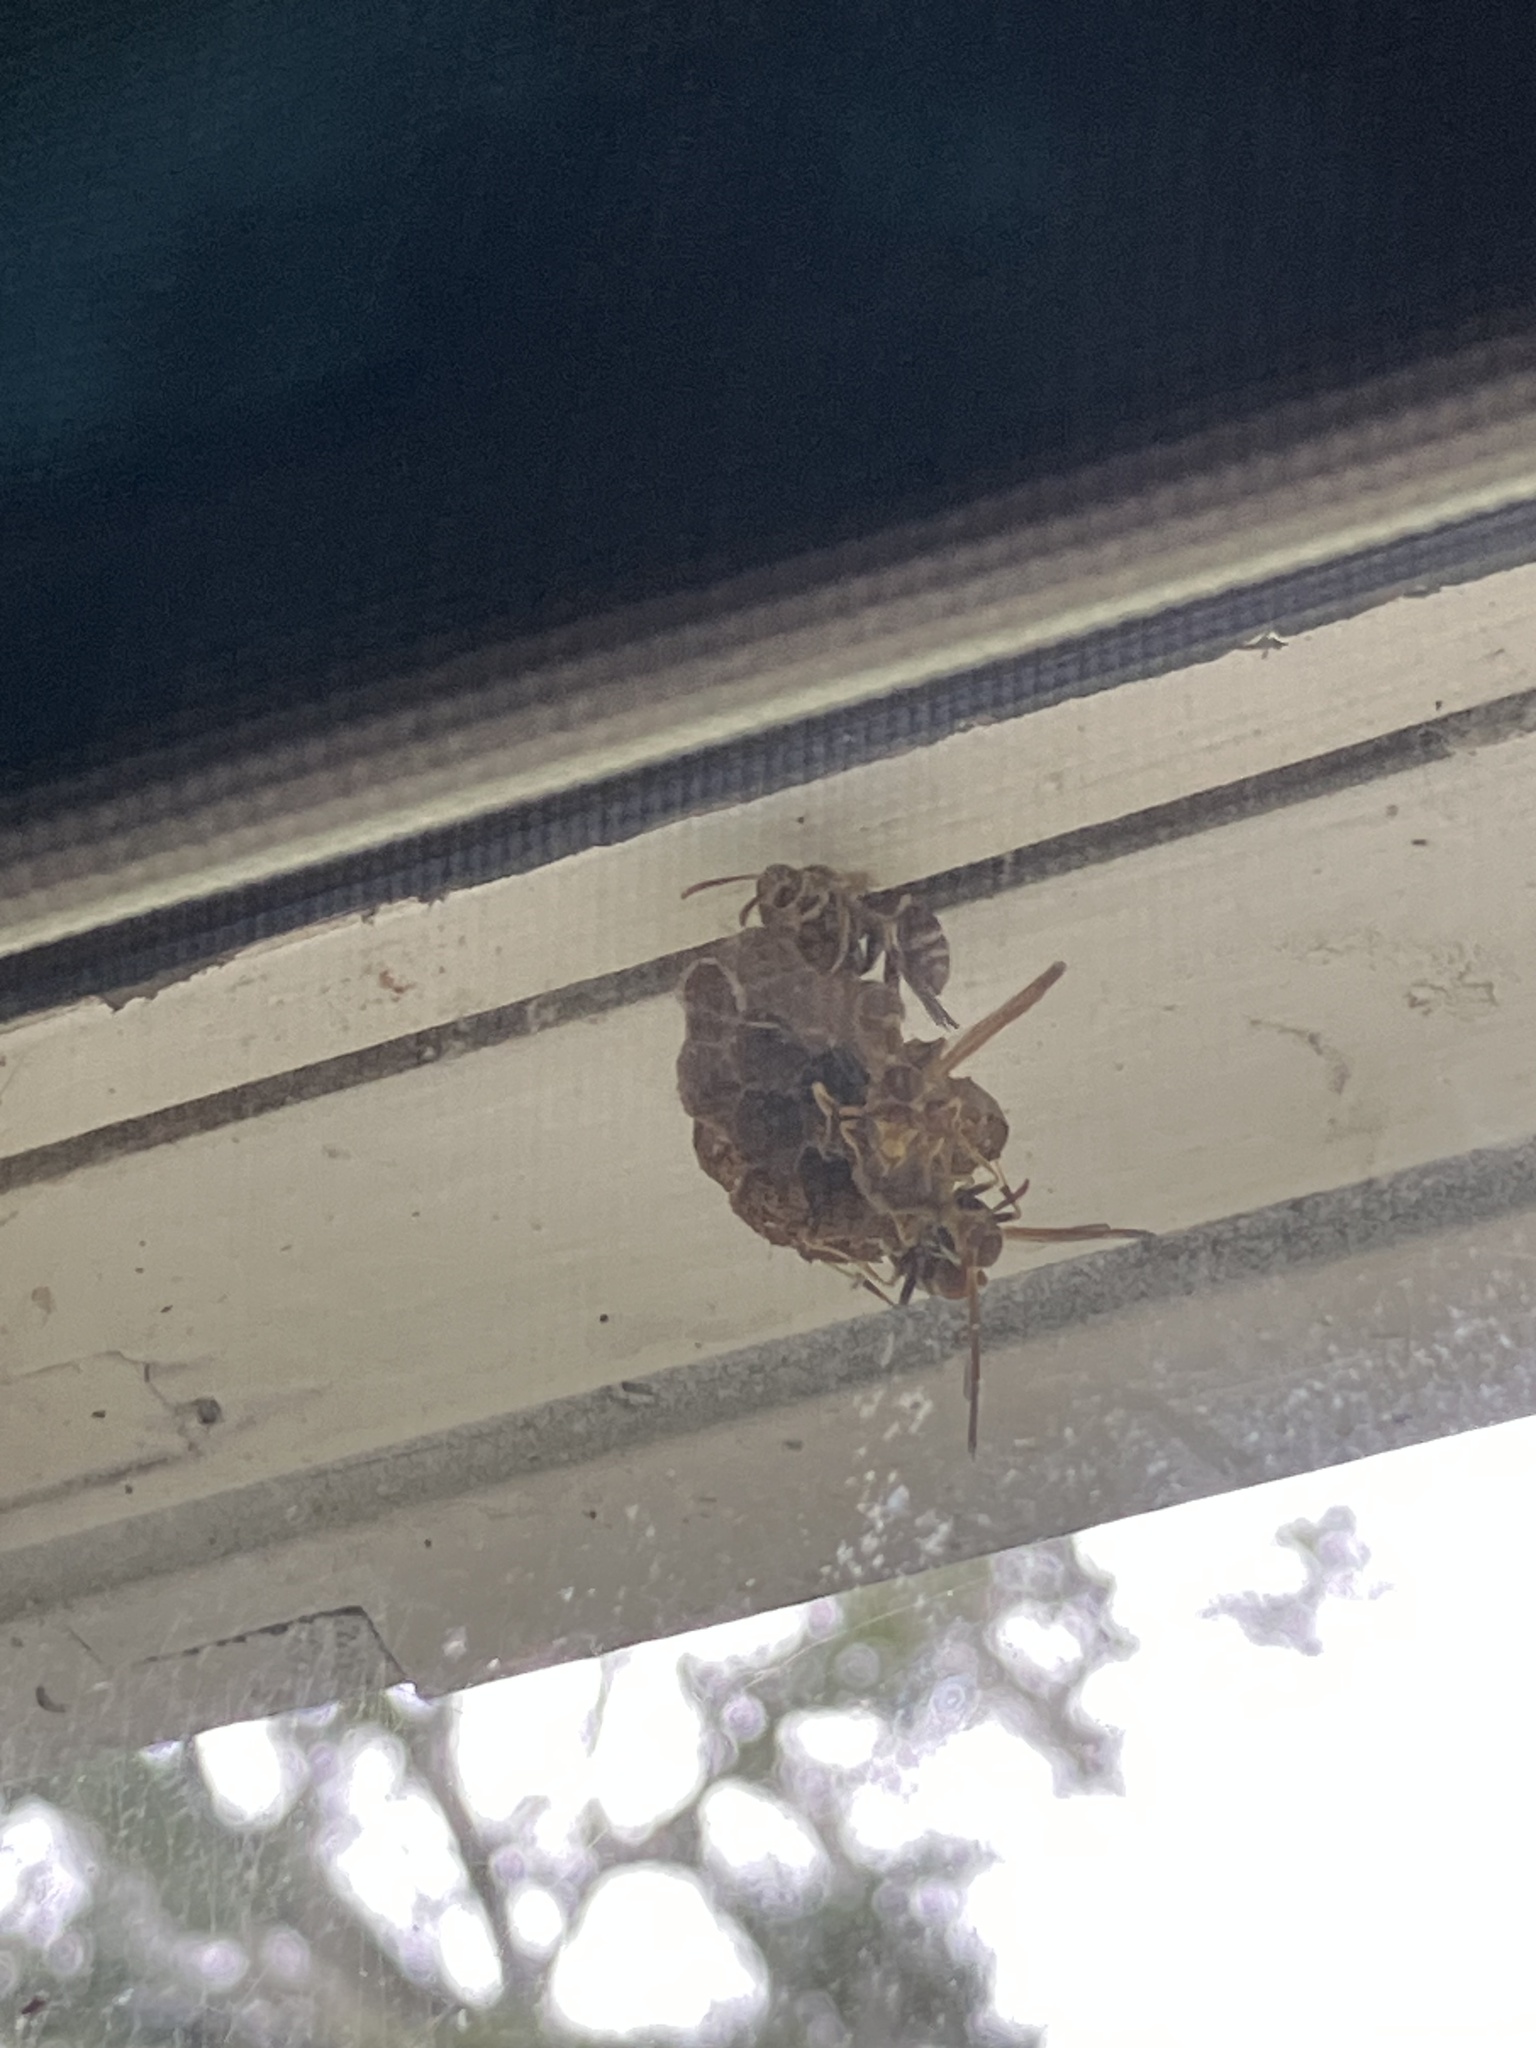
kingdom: Animalia
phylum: Arthropoda
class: Insecta
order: Hymenoptera
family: Vespidae
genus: Mischocyttarus
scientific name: Mischocyttarus mexicanus
